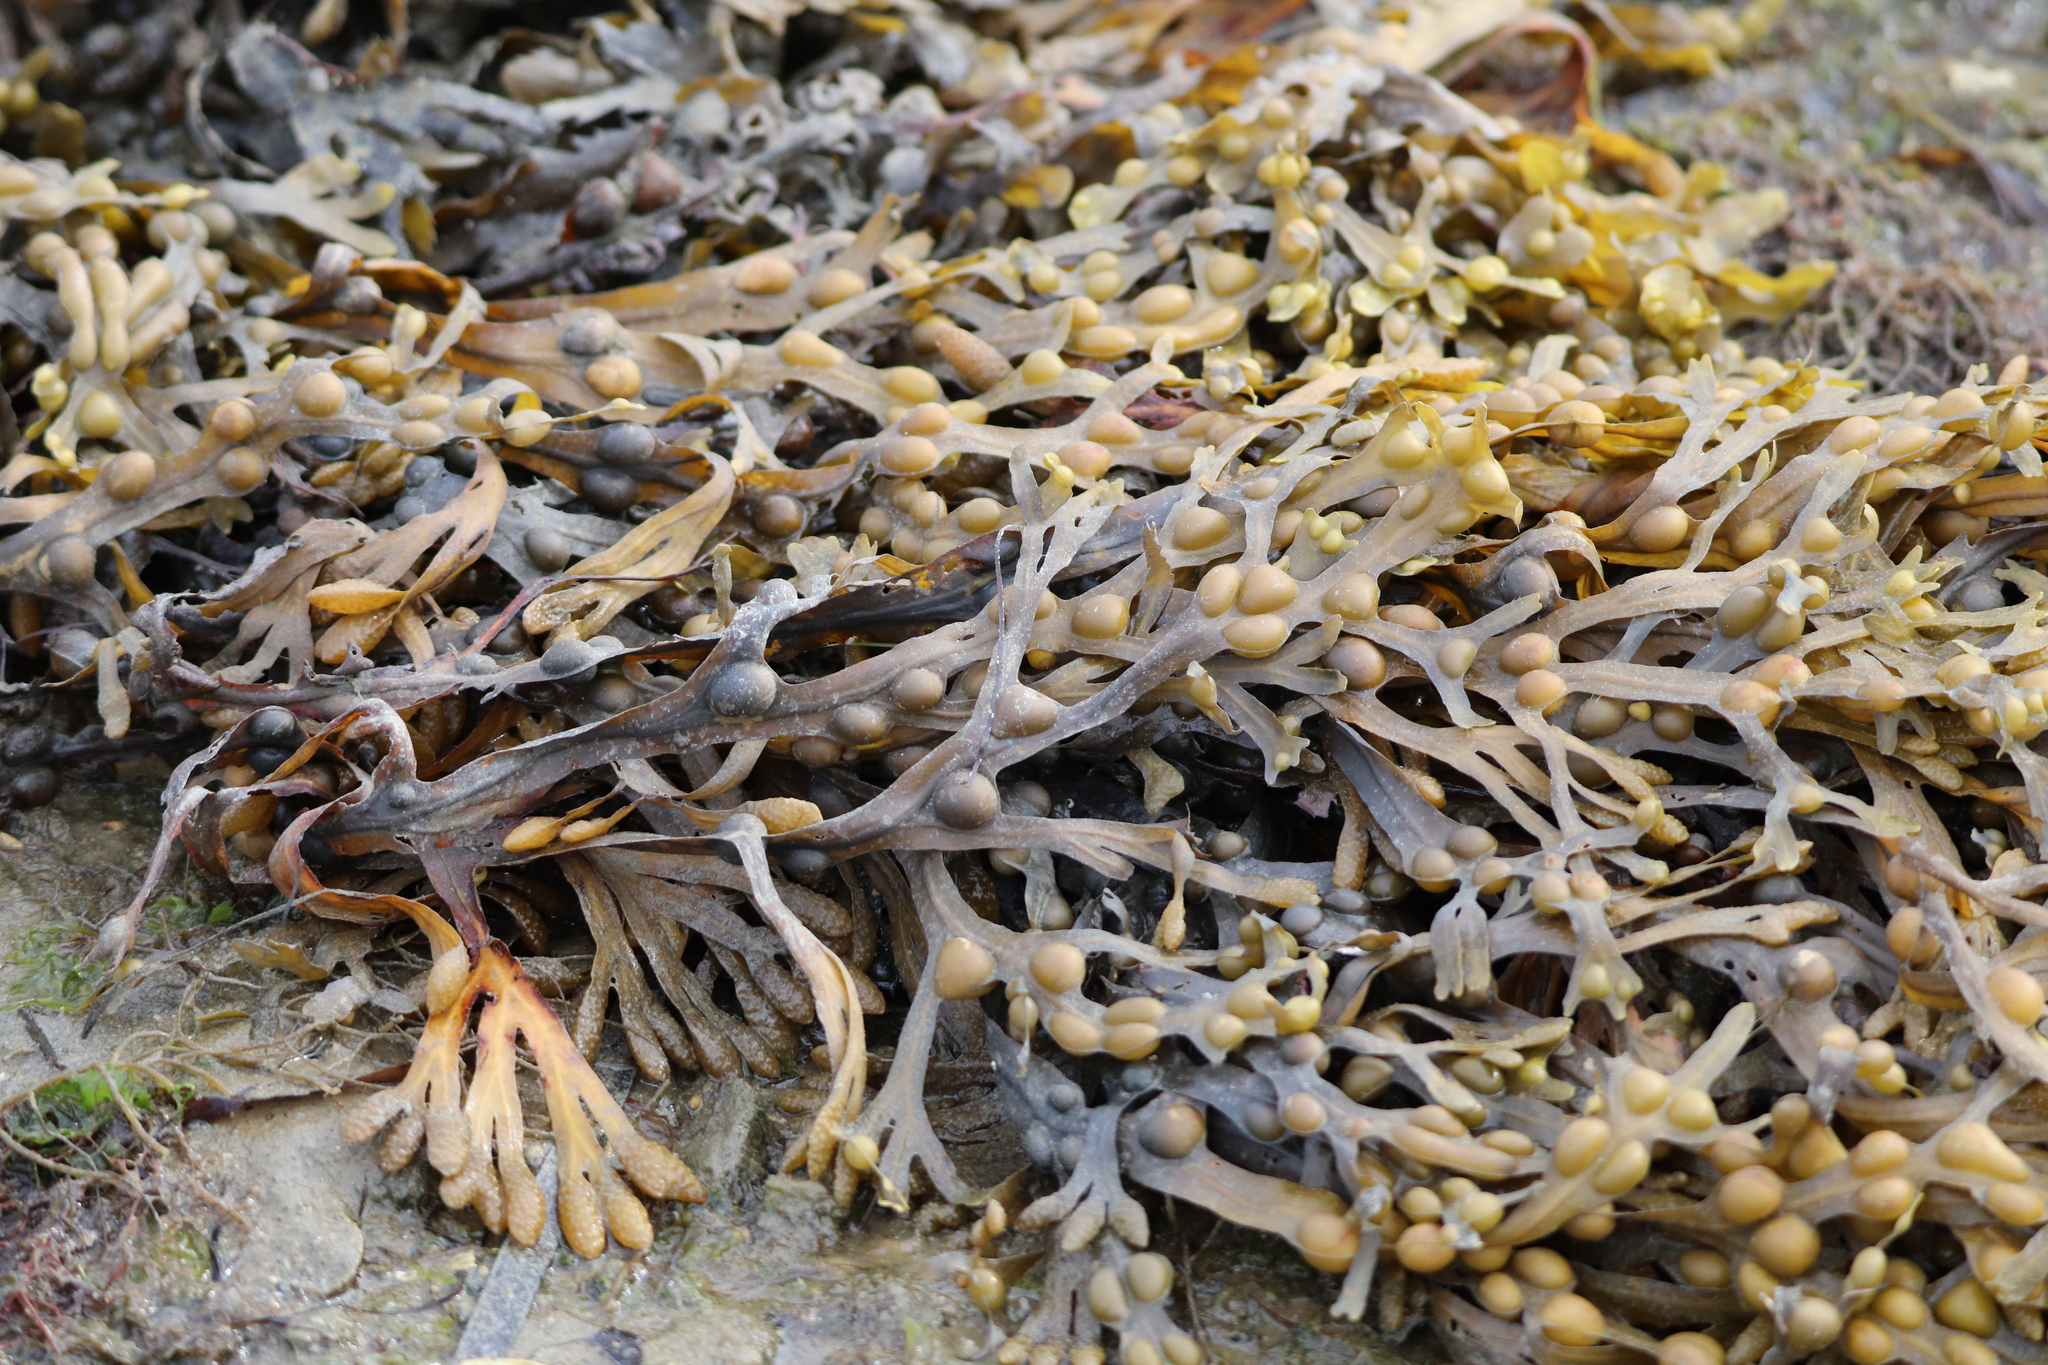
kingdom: Chromista
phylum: Ochrophyta
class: Phaeophyceae
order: Fucales
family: Fucaceae
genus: Fucus
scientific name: Fucus vesiculosus
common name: Bladder wrack
